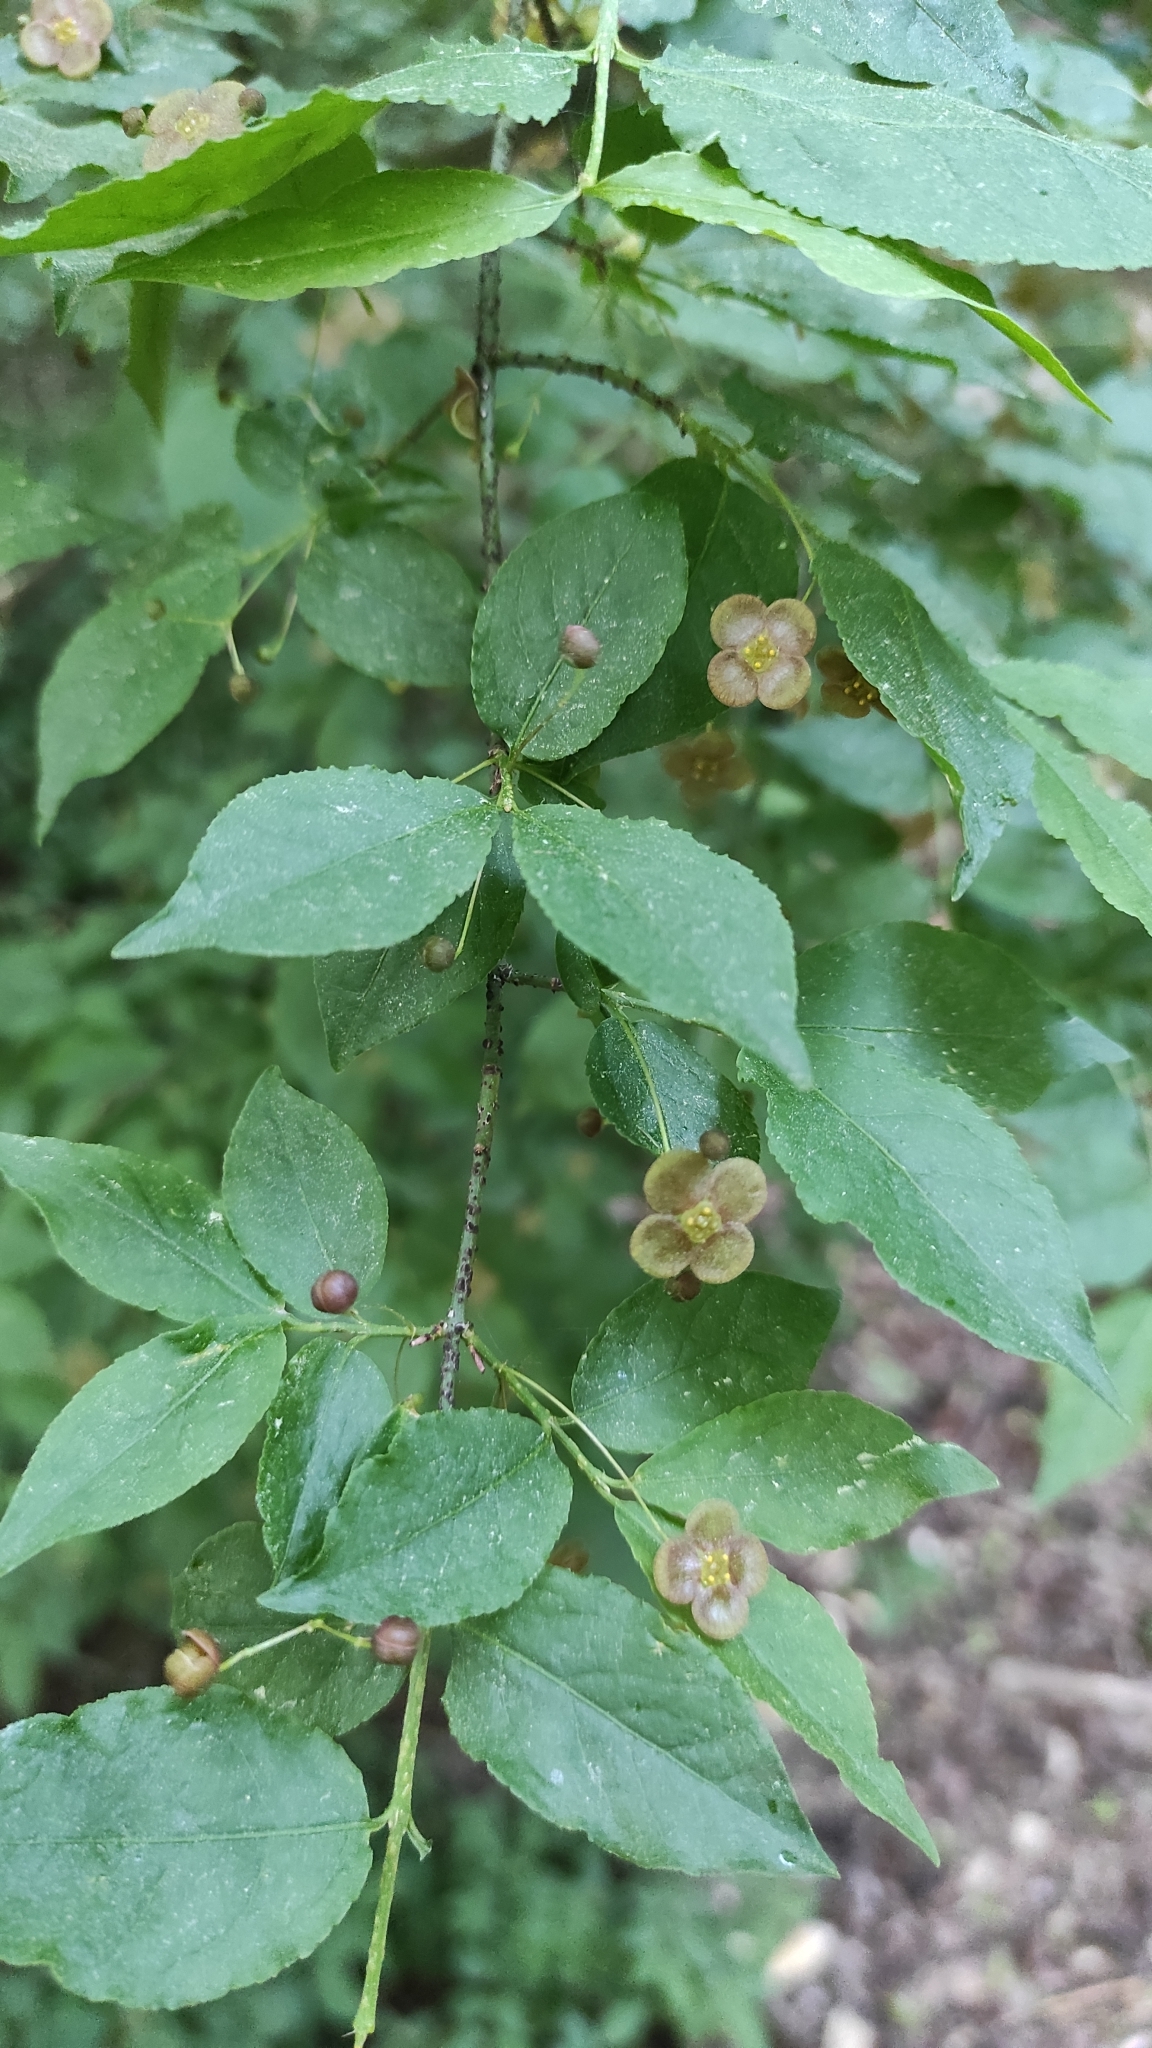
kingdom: Plantae
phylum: Tracheophyta
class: Magnoliopsida
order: Celastrales
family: Celastraceae
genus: Euonymus
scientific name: Euonymus verrucosus
